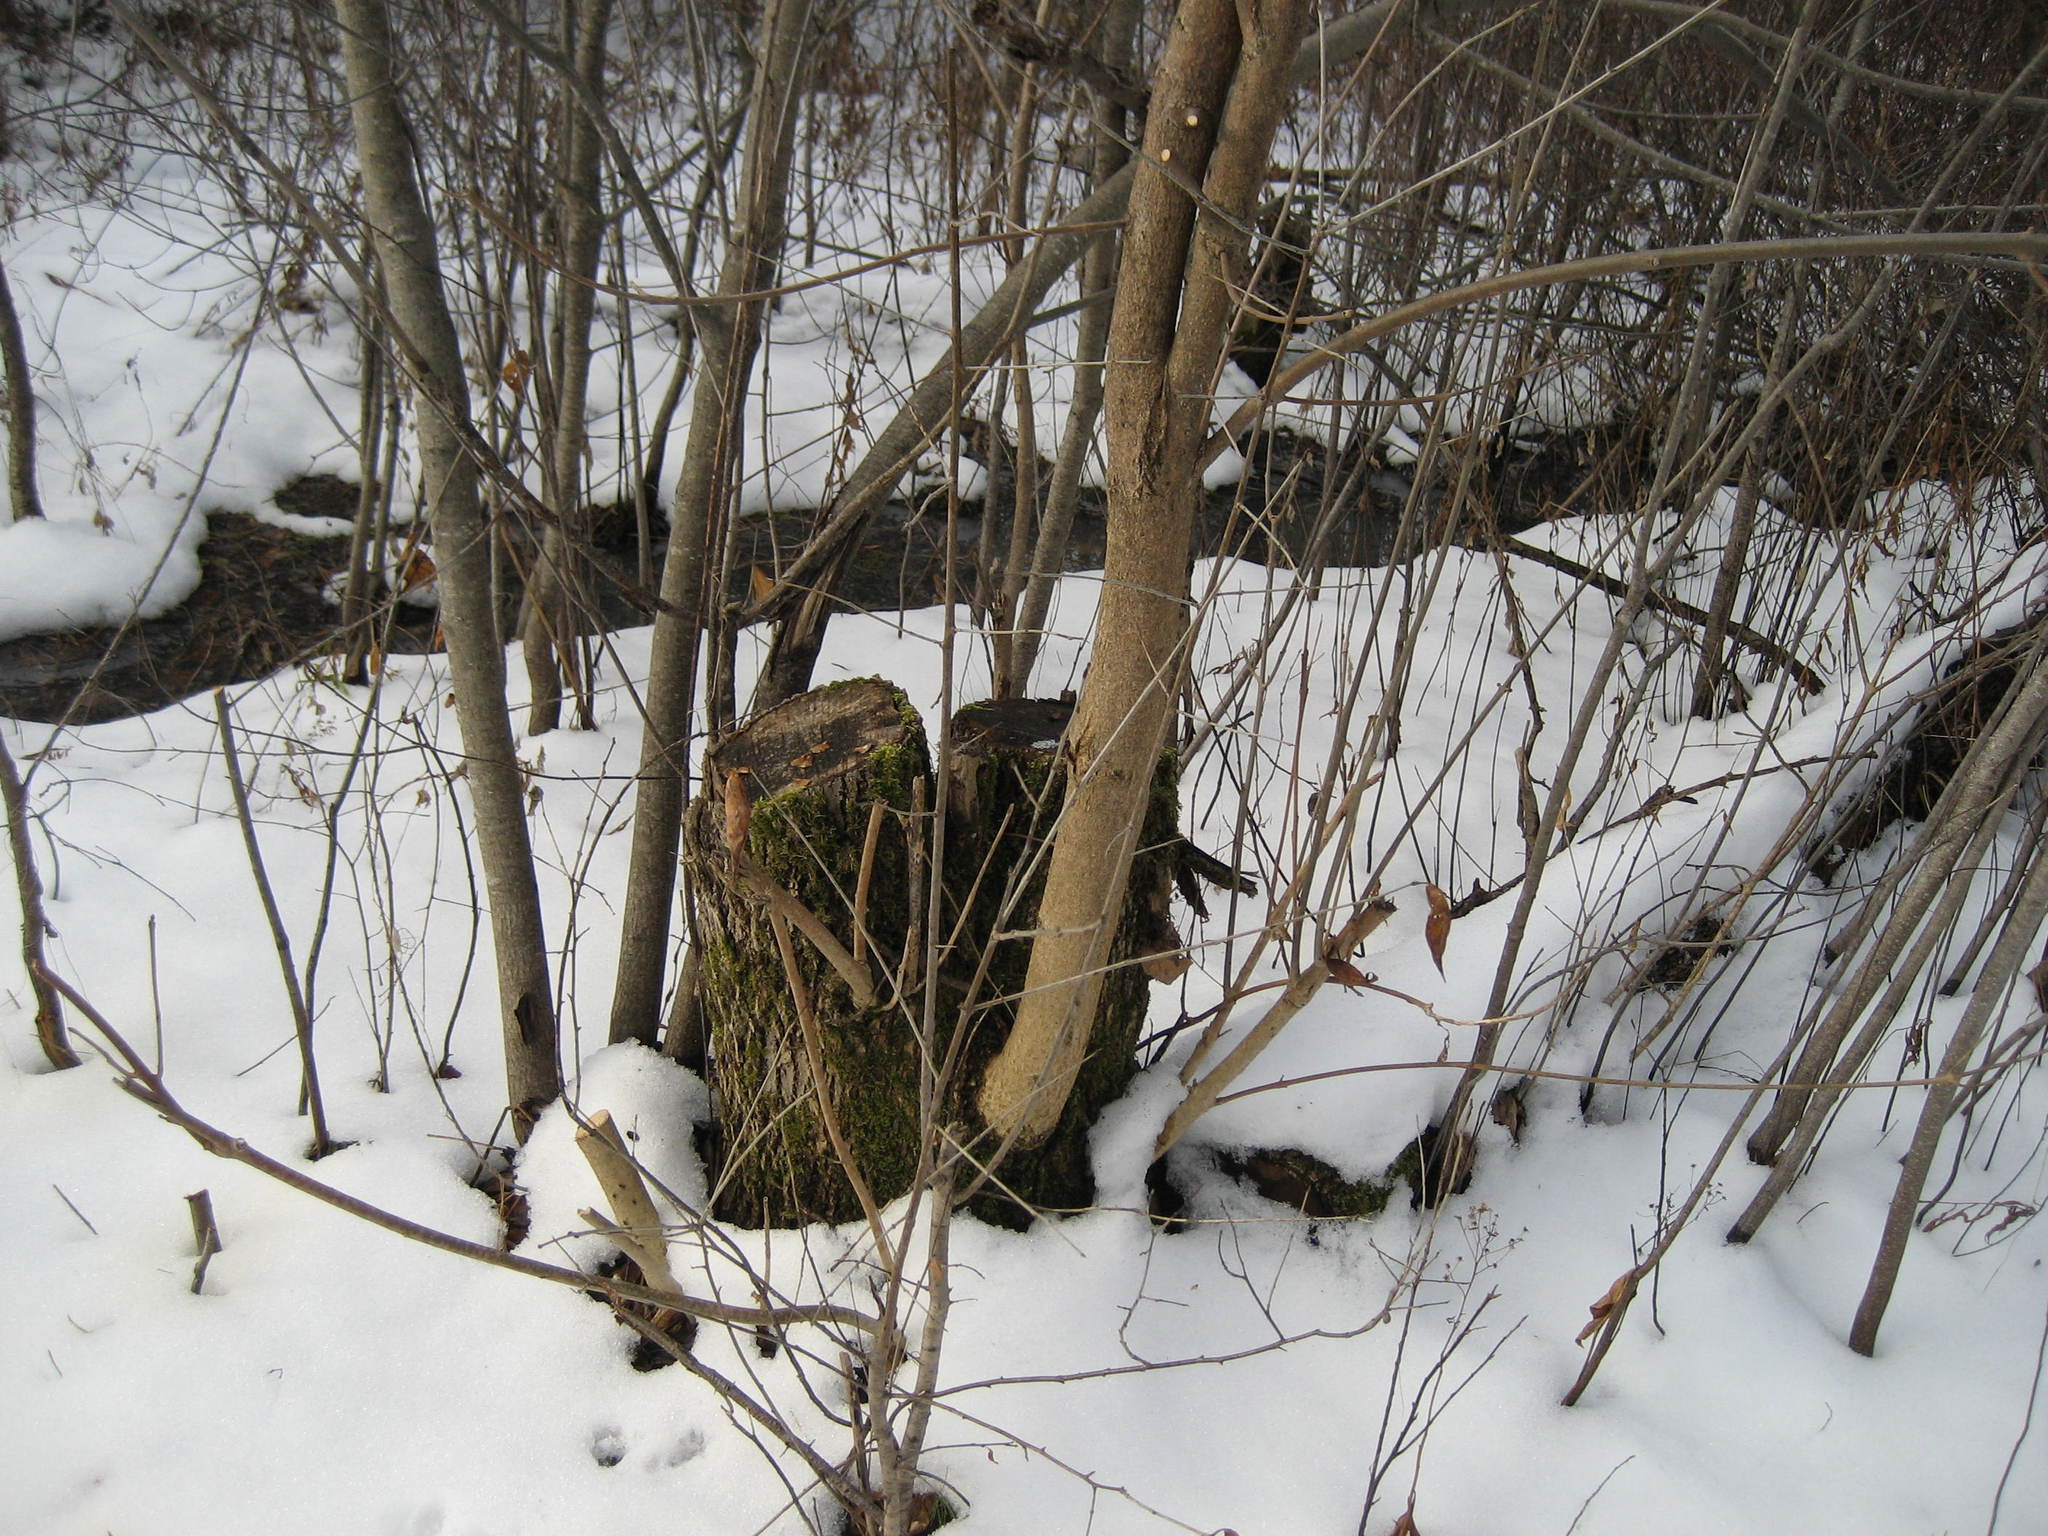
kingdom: Plantae
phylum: Tracheophyta
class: Magnoliopsida
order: Lamiales
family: Oleaceae
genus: Fraxinus
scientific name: Fraxinus pennsylvanica
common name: Green ash
